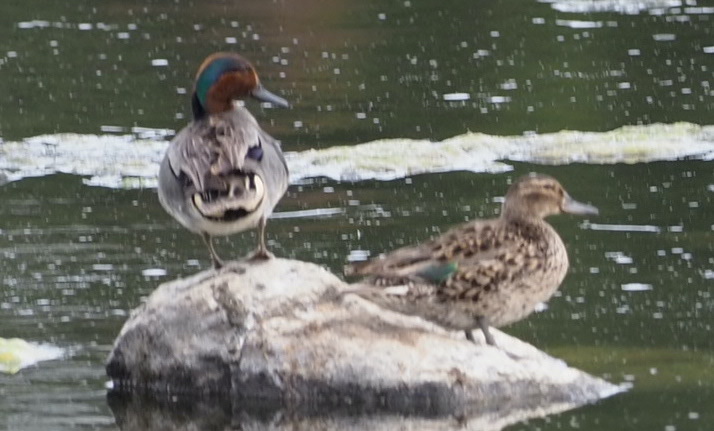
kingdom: Animalia
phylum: Chordata
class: Aves
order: Anseriformes
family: Anatidae
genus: Anas
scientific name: Anas crecca
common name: Eurasian teal
